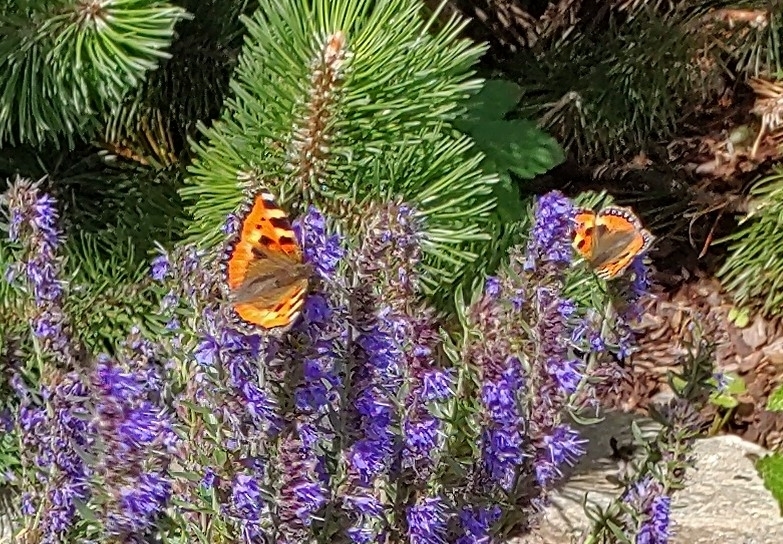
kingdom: Animalia
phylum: Arthropoda
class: Insecta
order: Lepidoptera
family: Nymphalidae
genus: Aglais
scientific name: Aglais urticae
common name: Small tortoiseshell
